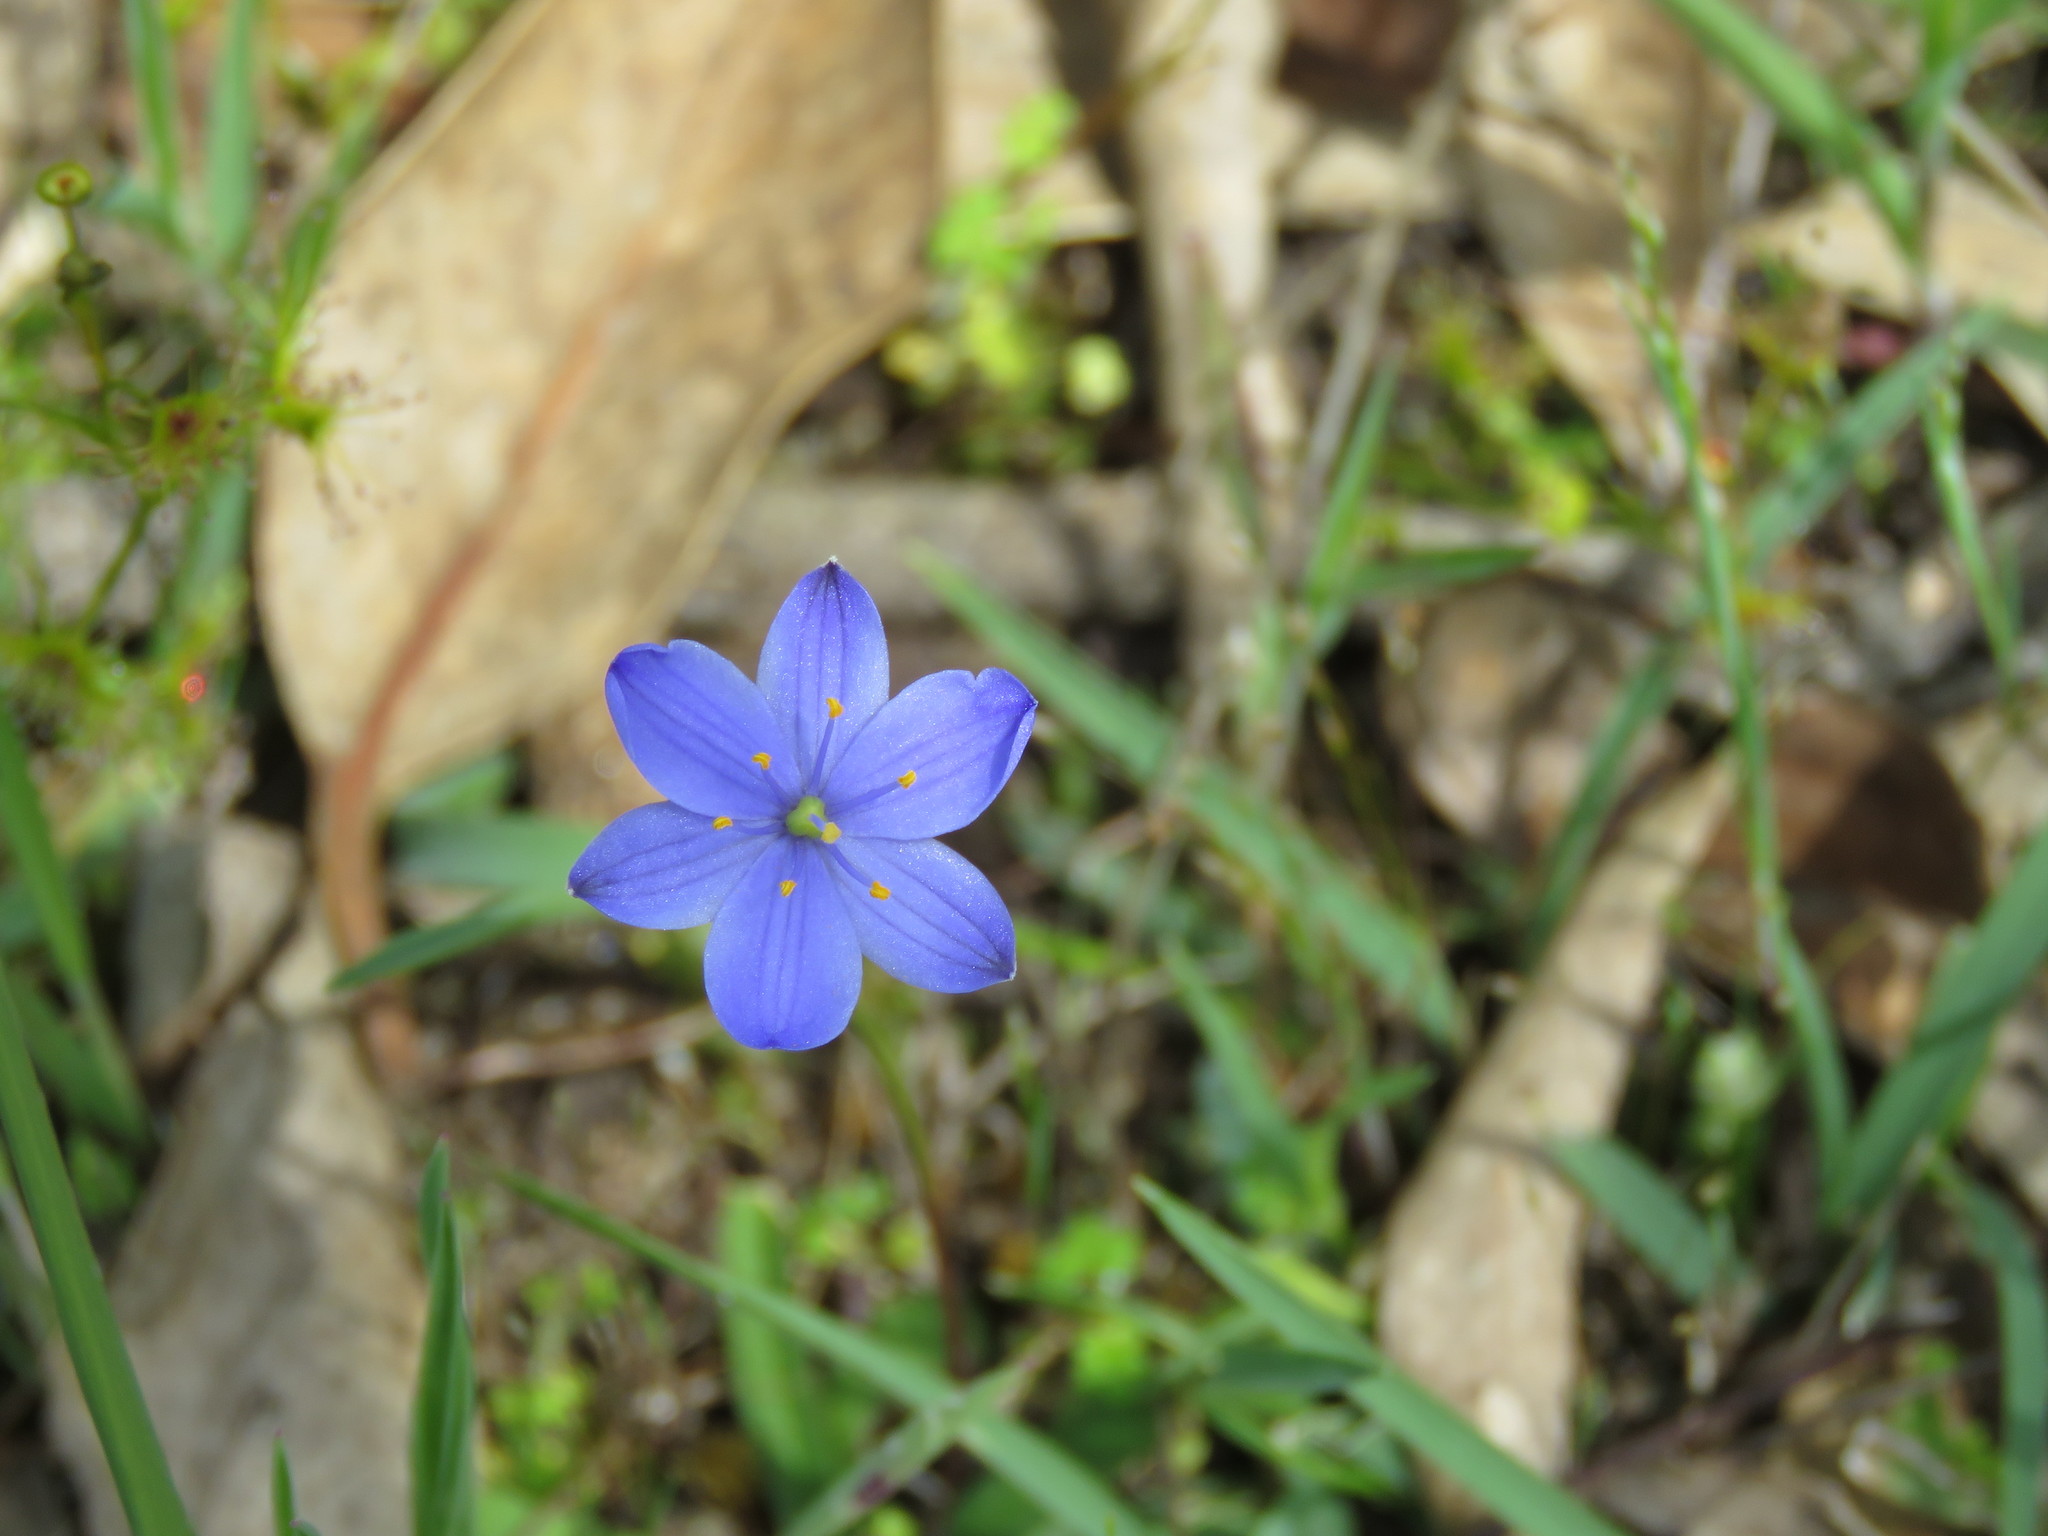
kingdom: Plantae
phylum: Tracheophyta
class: Liliopsida
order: Asparagales
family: Asphodelaceae
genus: Chamaescilla
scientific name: Chamaescilla corymbosa
